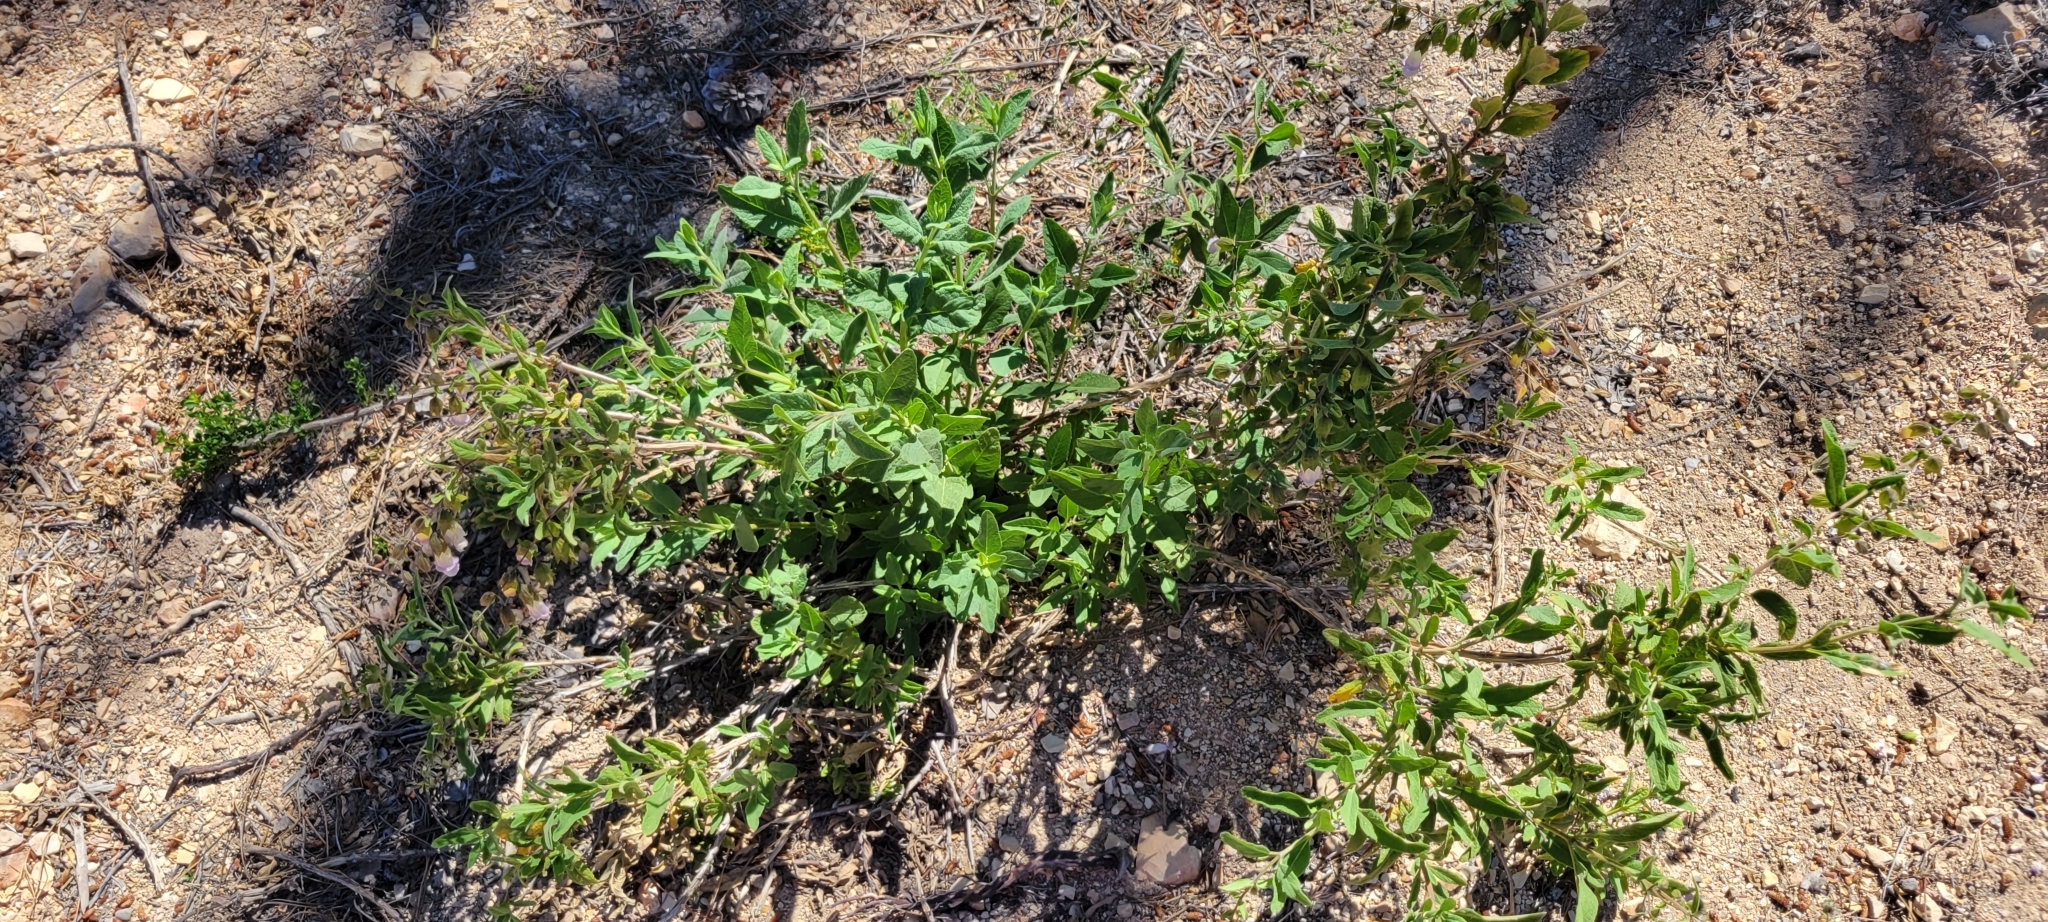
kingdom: Plantae
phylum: Tracheophyta
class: Magnoliopsida
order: Lamiales
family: Lamiaceae
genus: Lepechinia
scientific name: Lepechinia calycina
